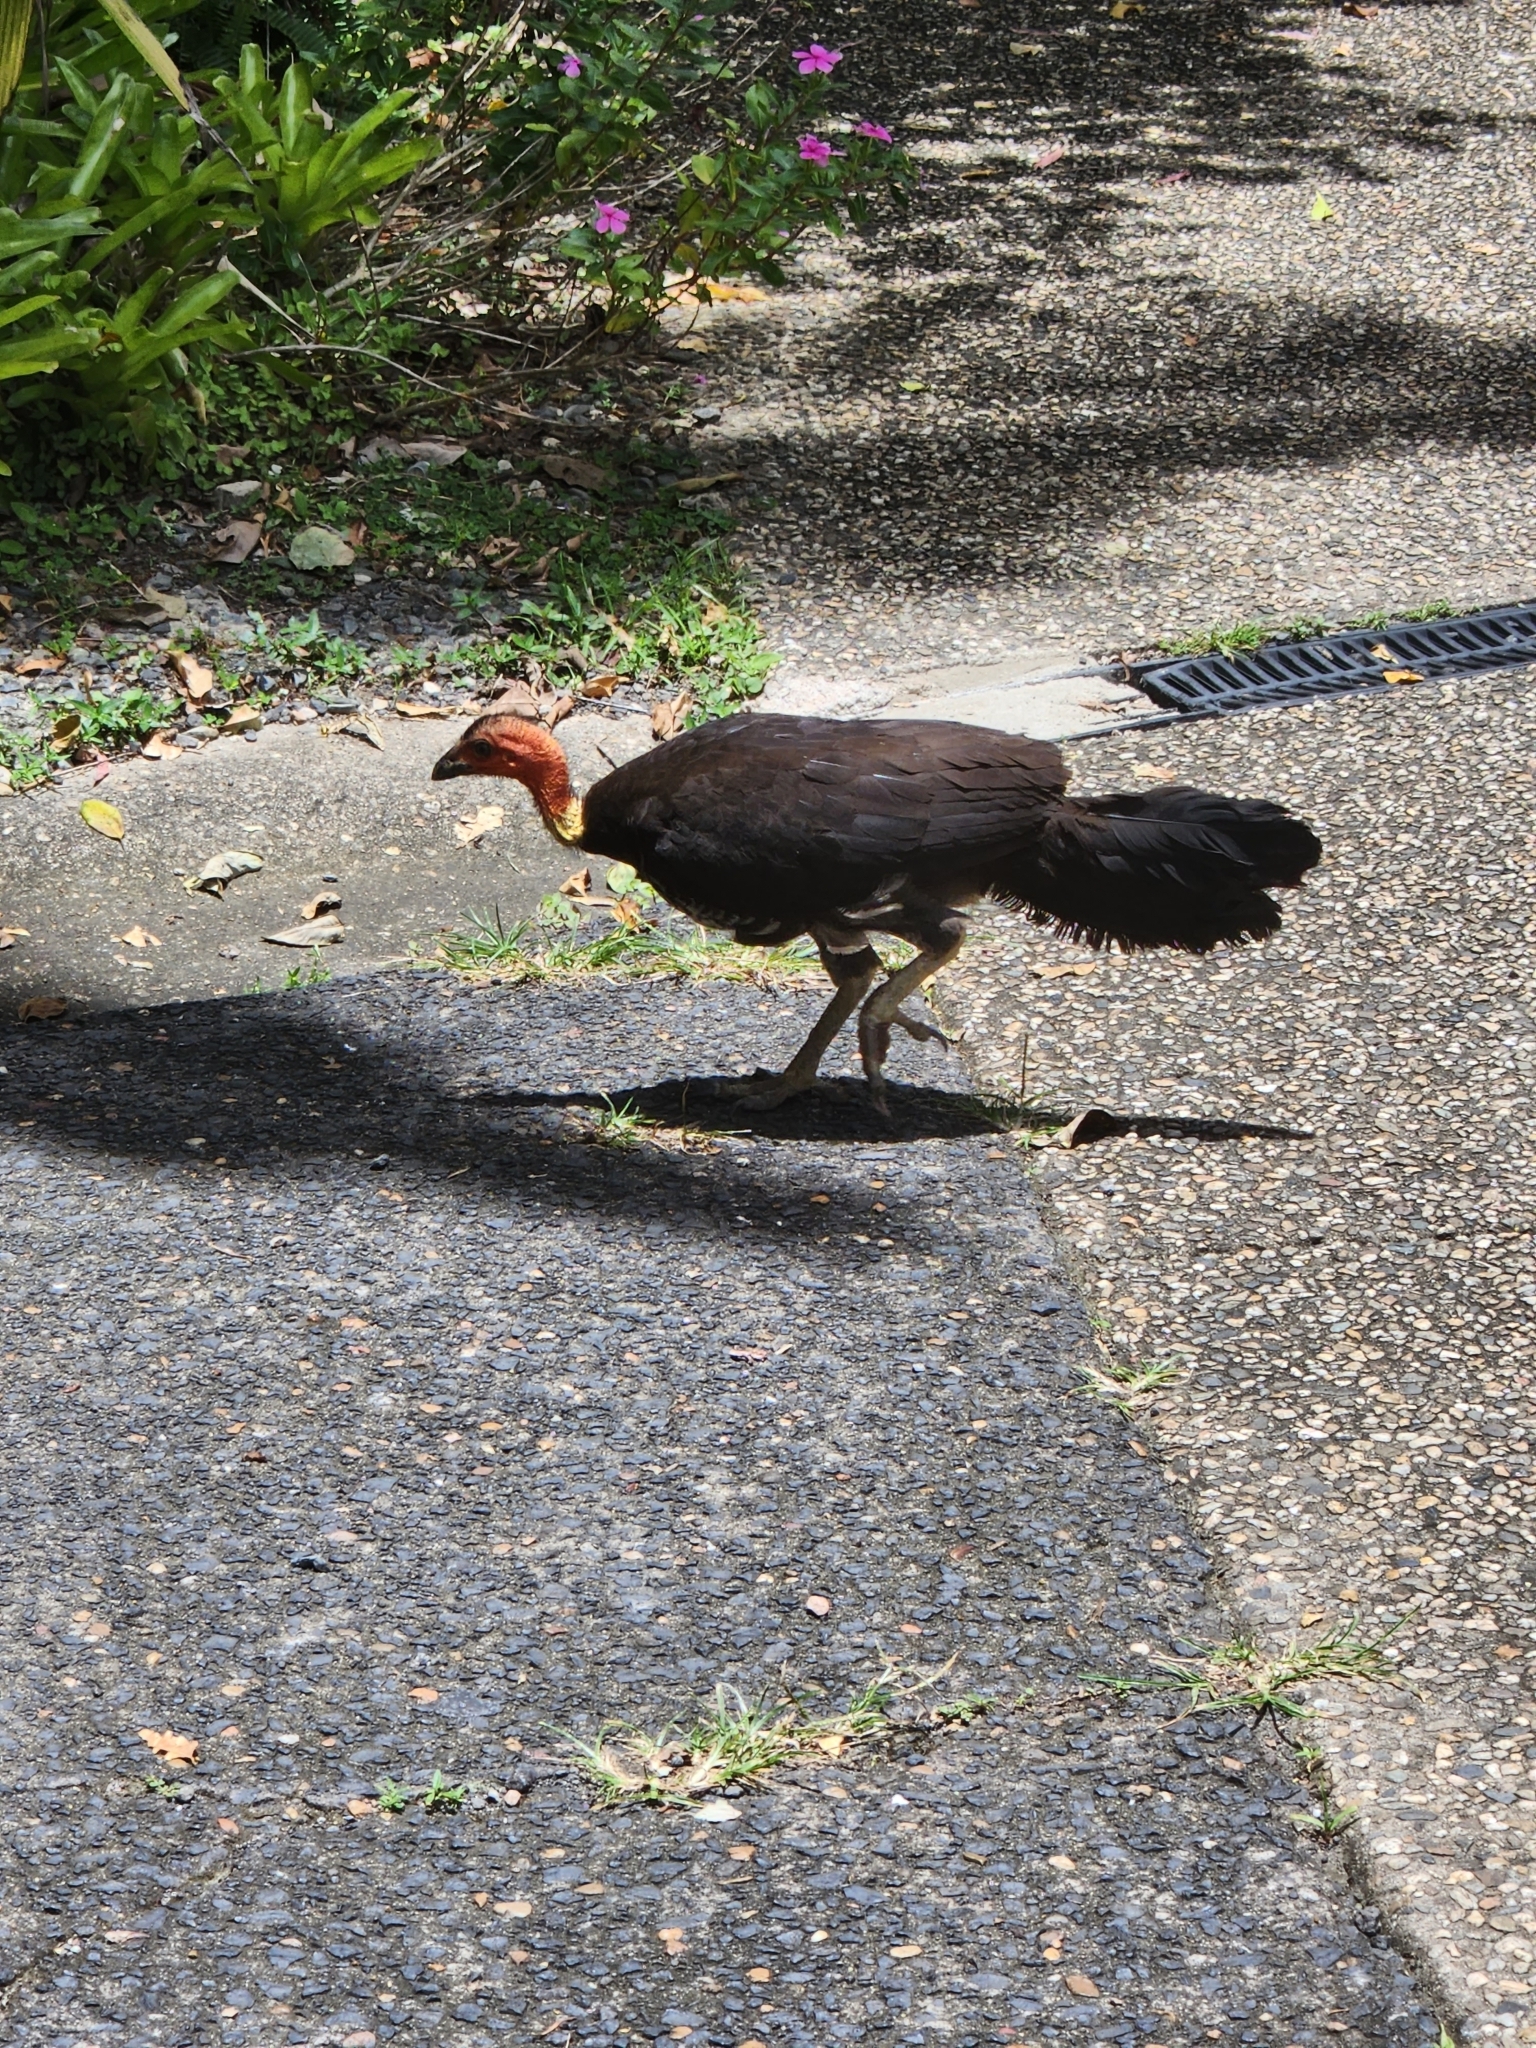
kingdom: Animalia
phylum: Chordata
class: Aves
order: Galliformes
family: Megapodiidae
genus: Alectura
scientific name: Alectura lathami
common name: Australian brushturkey
